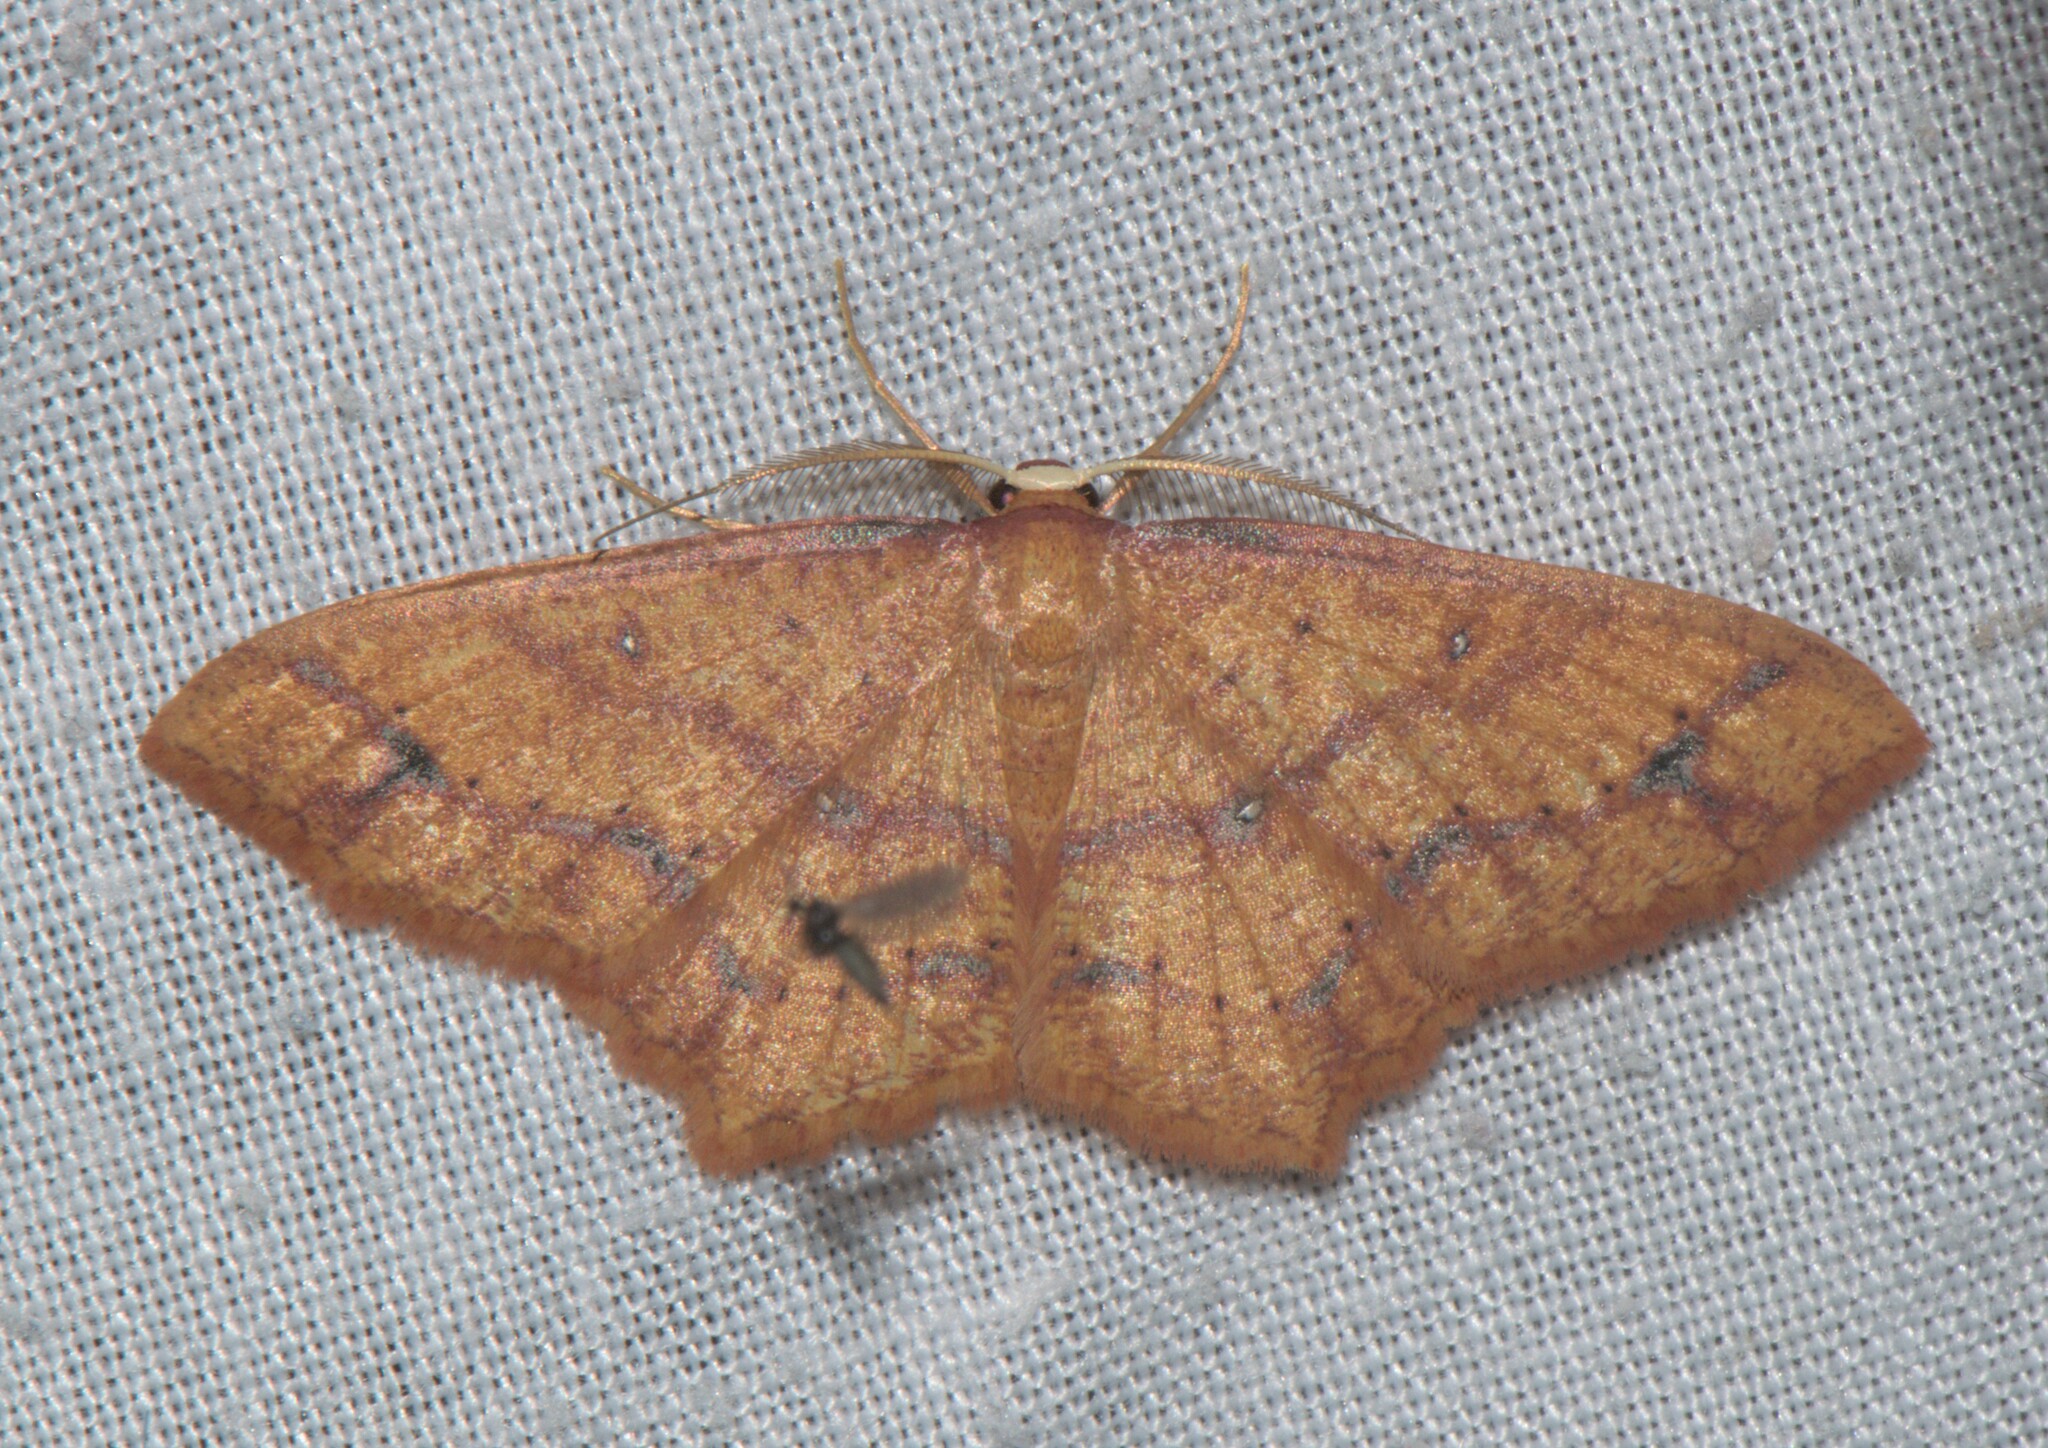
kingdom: Animalia
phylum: Arthropoda
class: Insecta
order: Lepidoptera
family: Geometridae
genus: Synegiodes
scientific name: Synegiodes hyriaria
